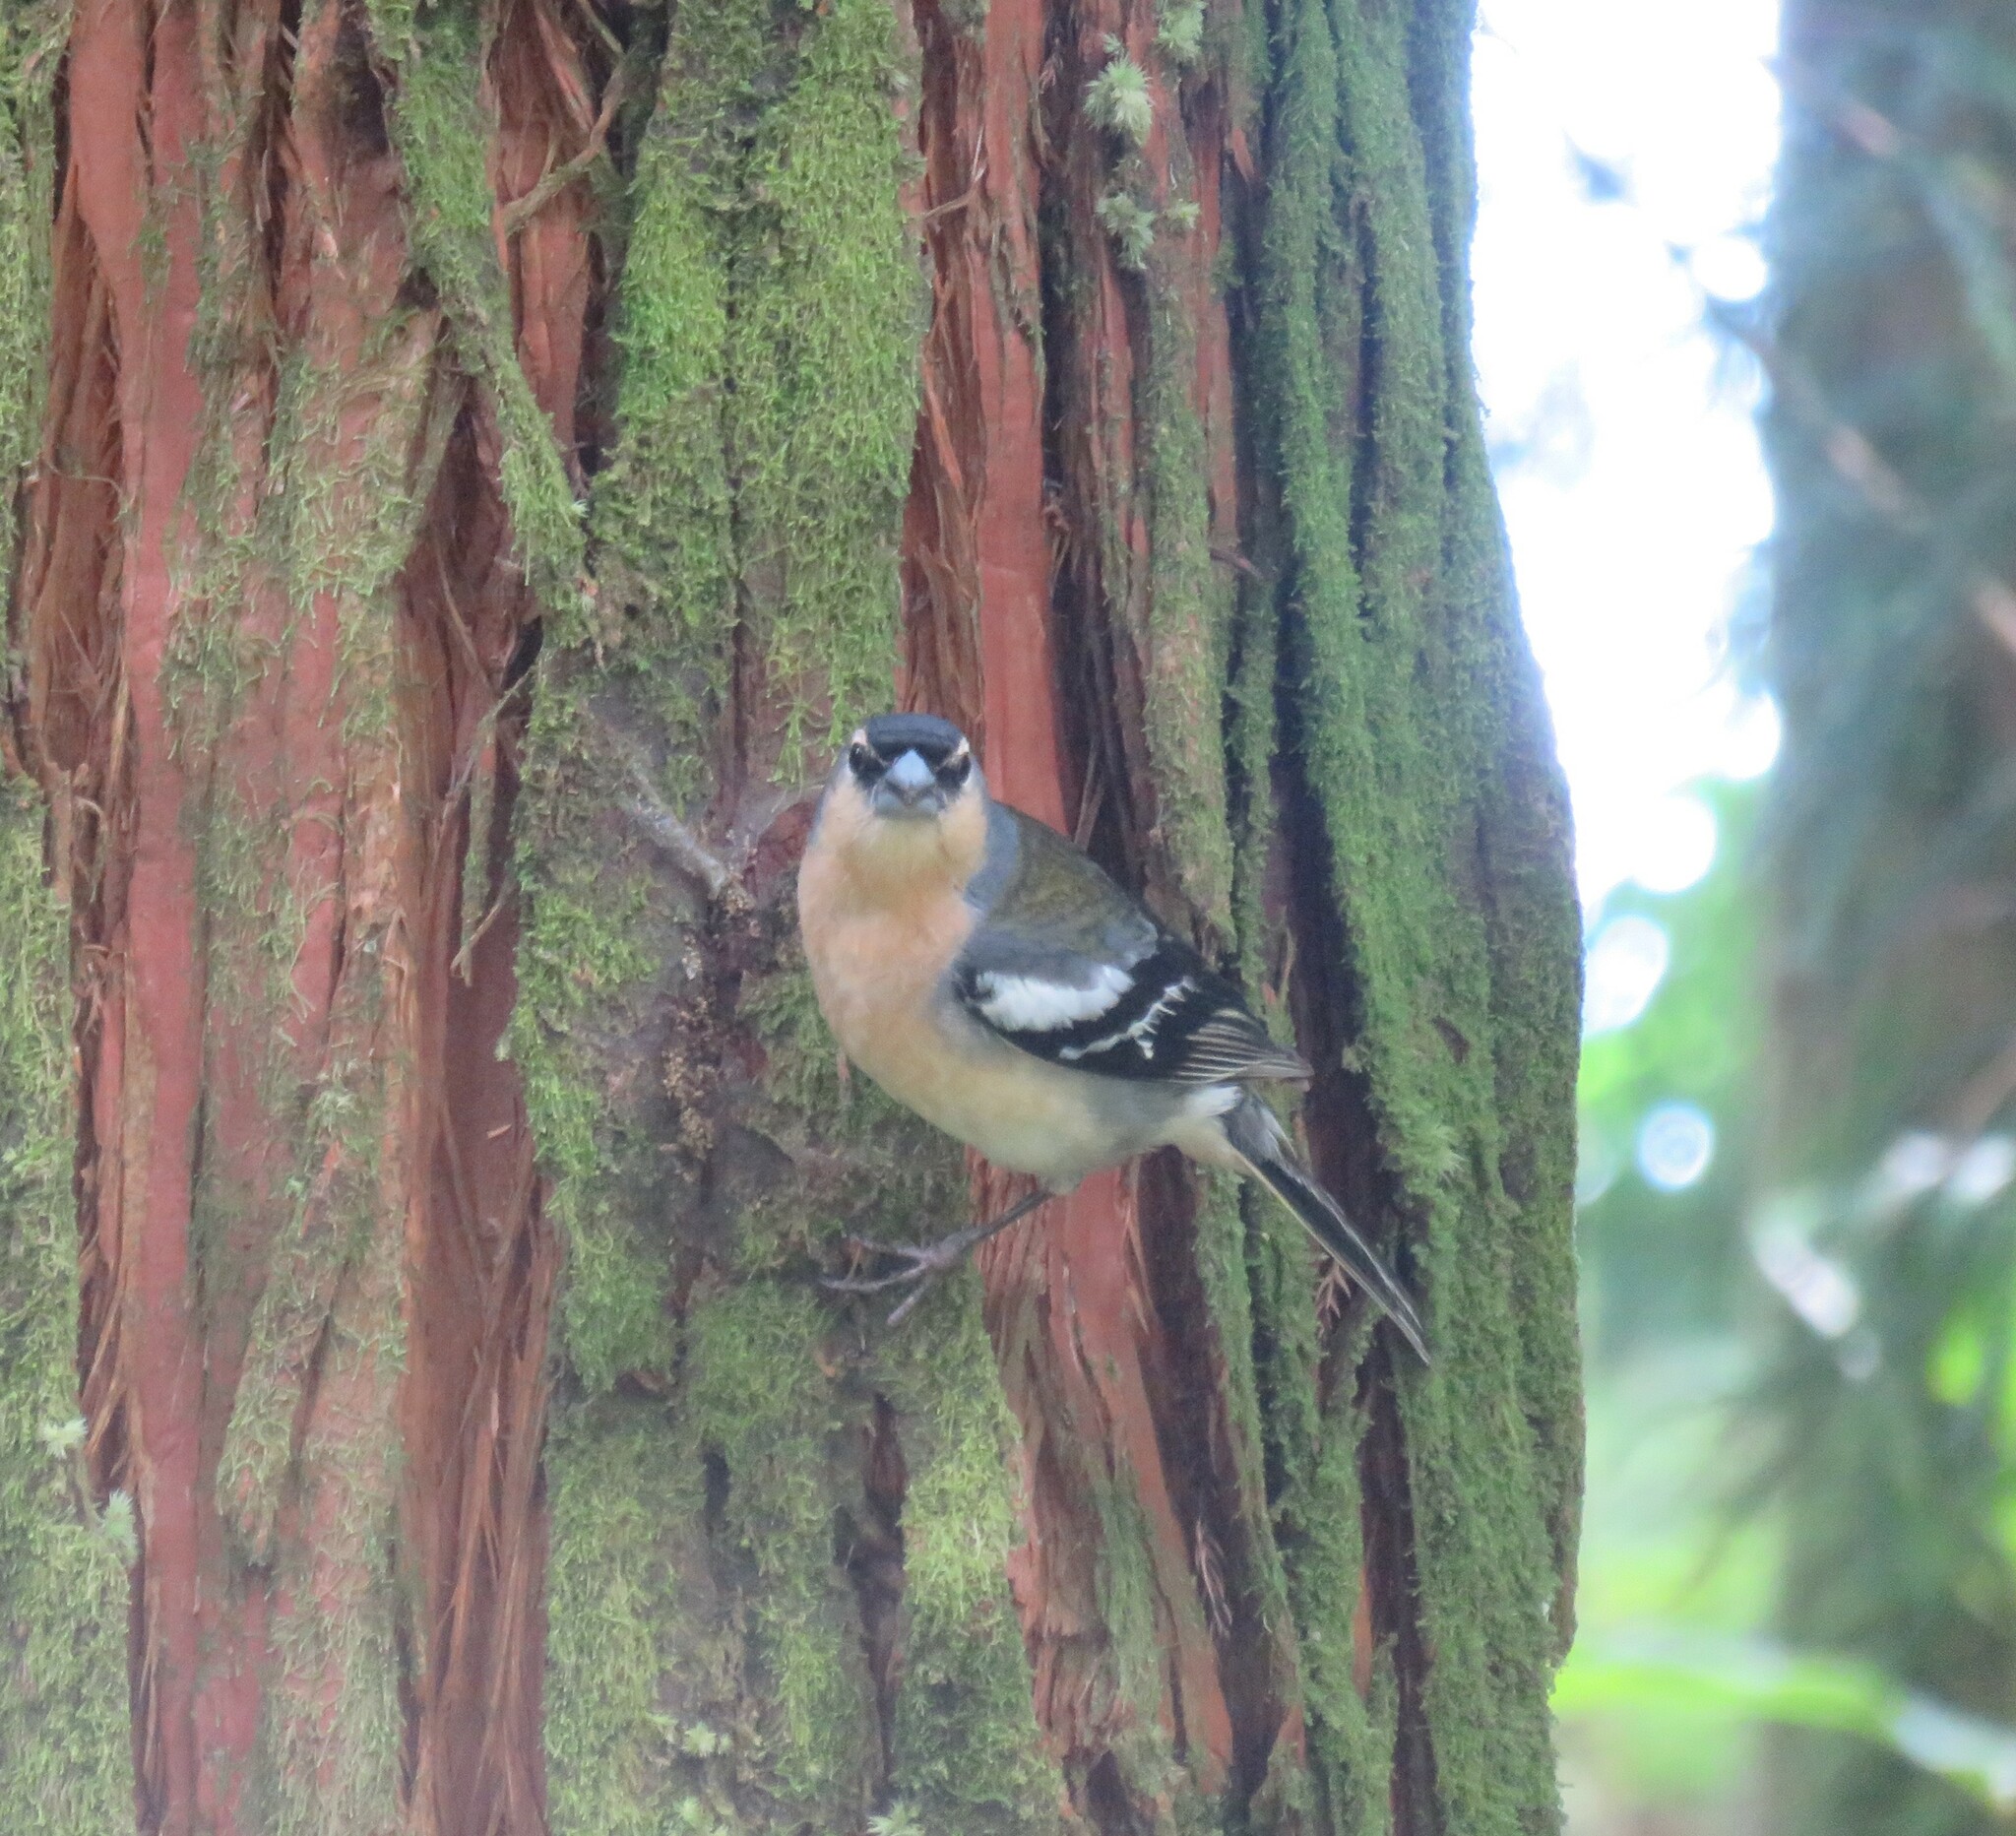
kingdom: Animalia
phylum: Chordata
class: Aves
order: Passeriformes
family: Fringillidae
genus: Fringilla
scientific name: Fringilla moreletti
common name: Azores chaffinch
